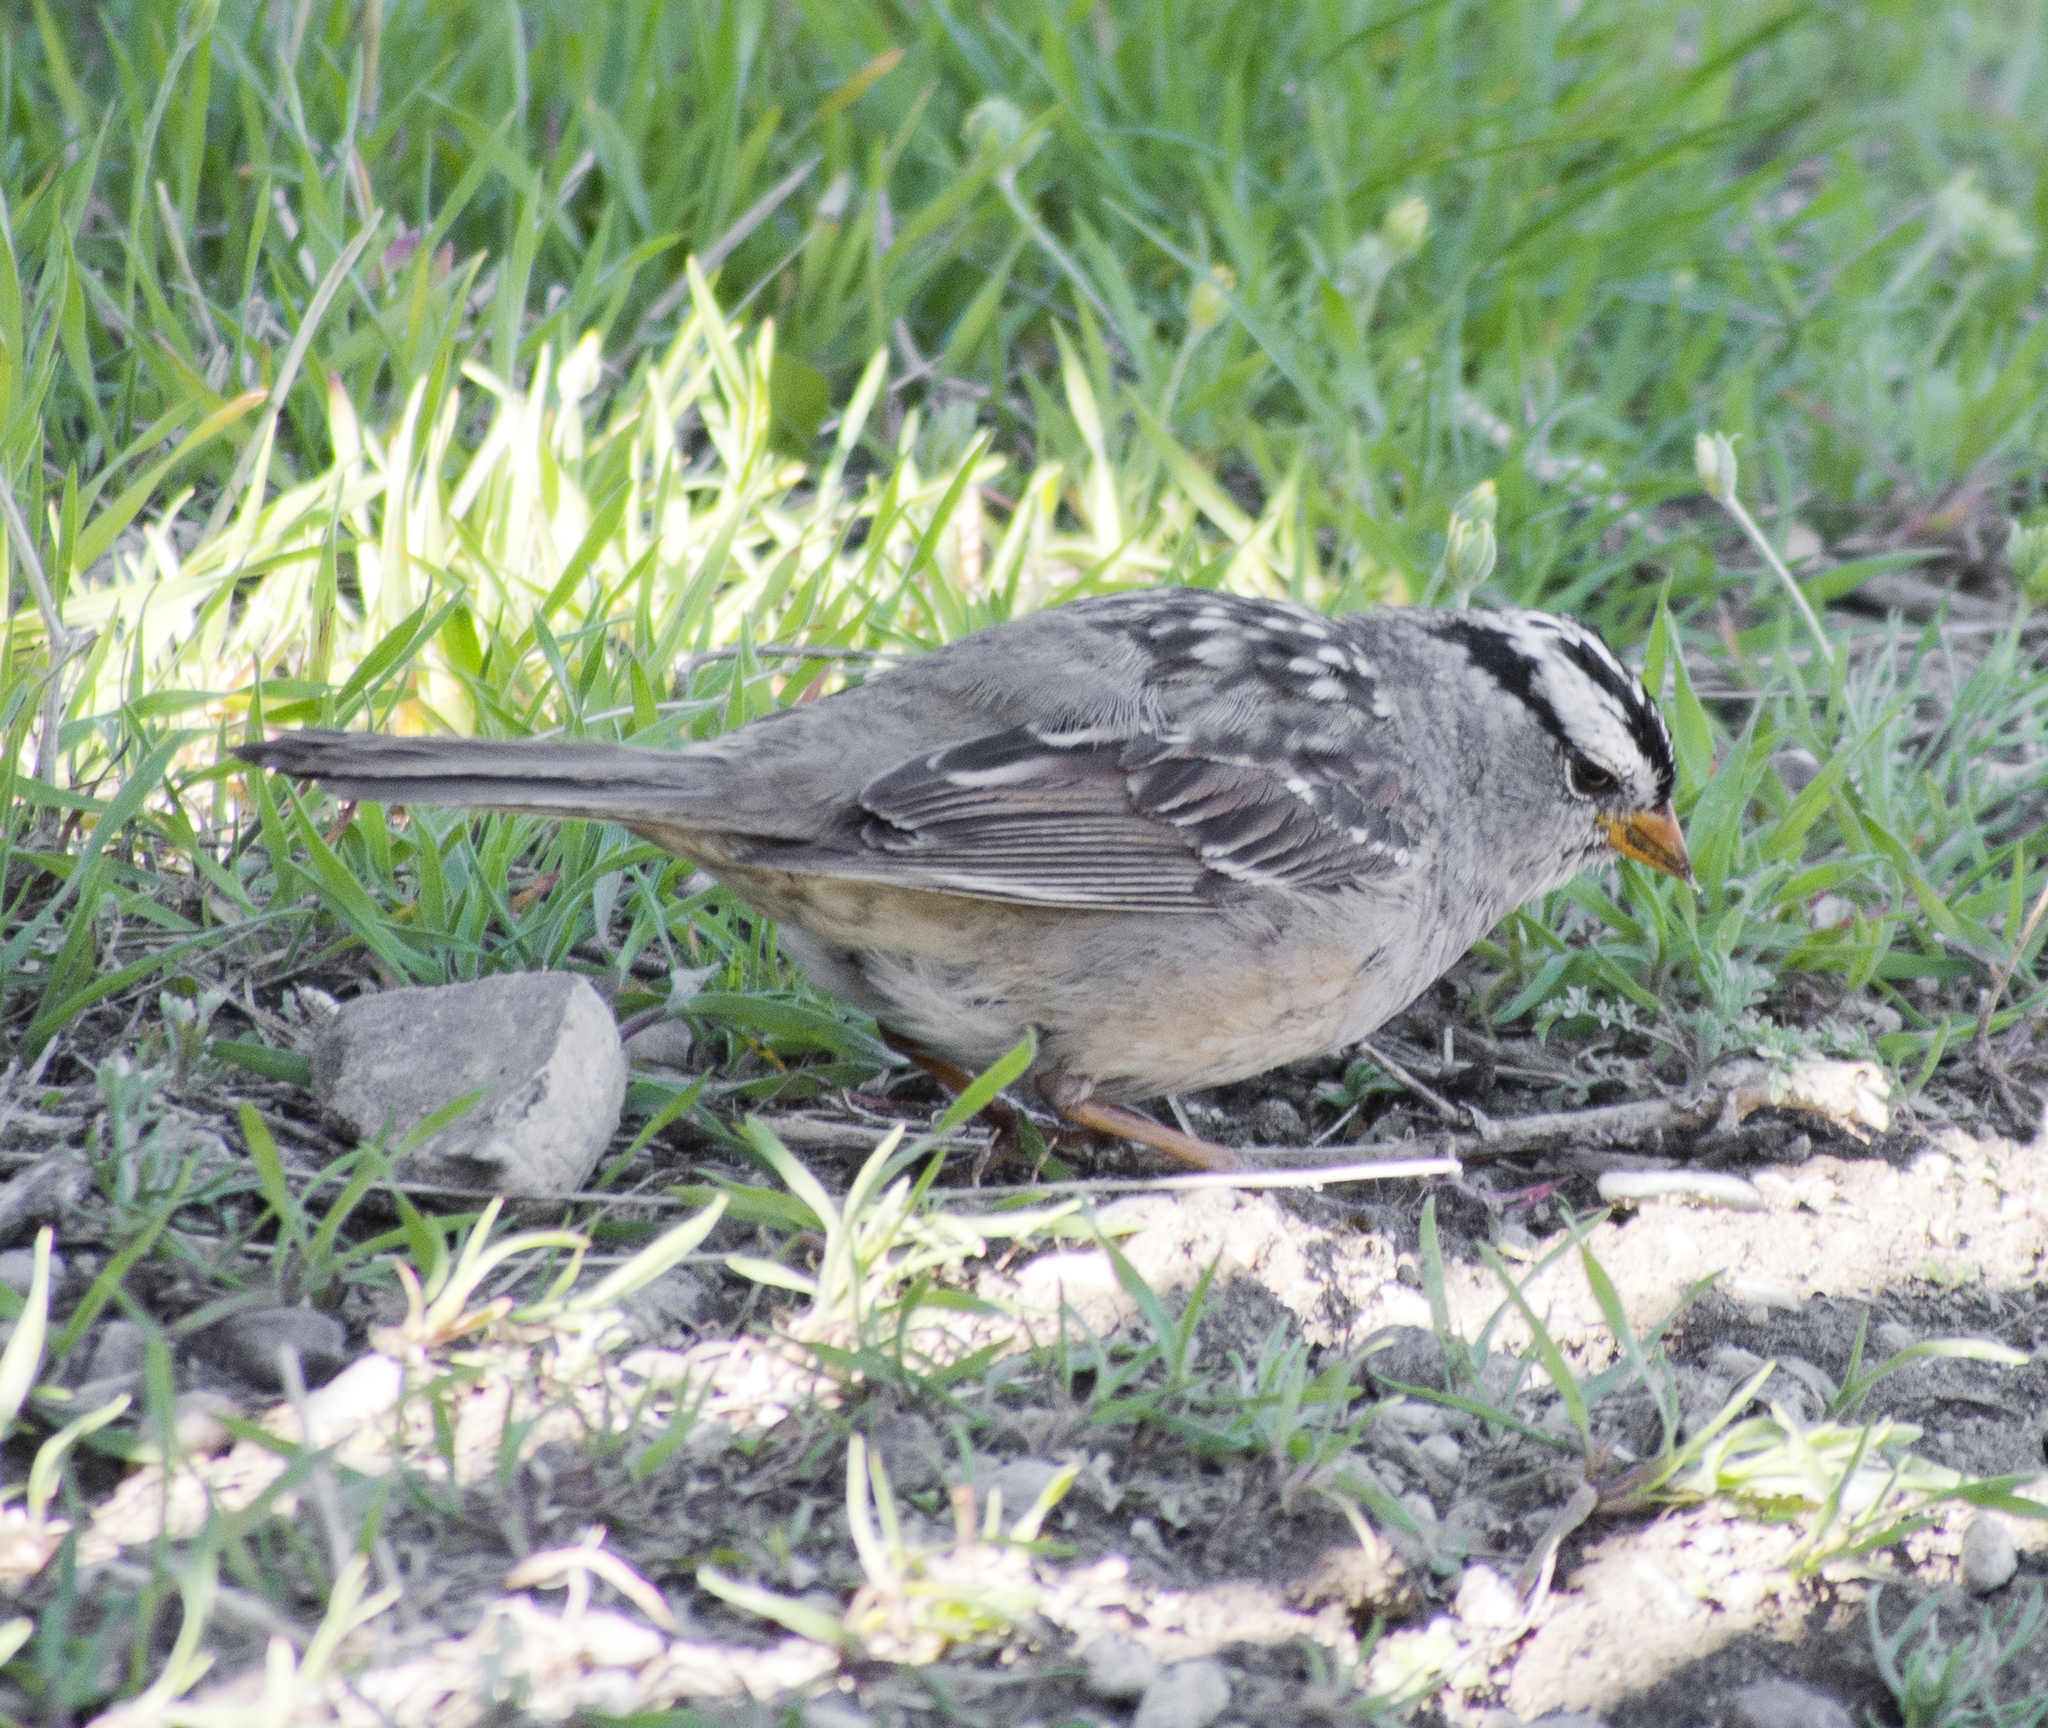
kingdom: Animalia
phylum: Chordata
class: Aves
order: Passeriformes
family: Passerellidae
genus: Zonotrichia
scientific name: Zonotrichia leucophrys
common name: White-crowned sparrow
